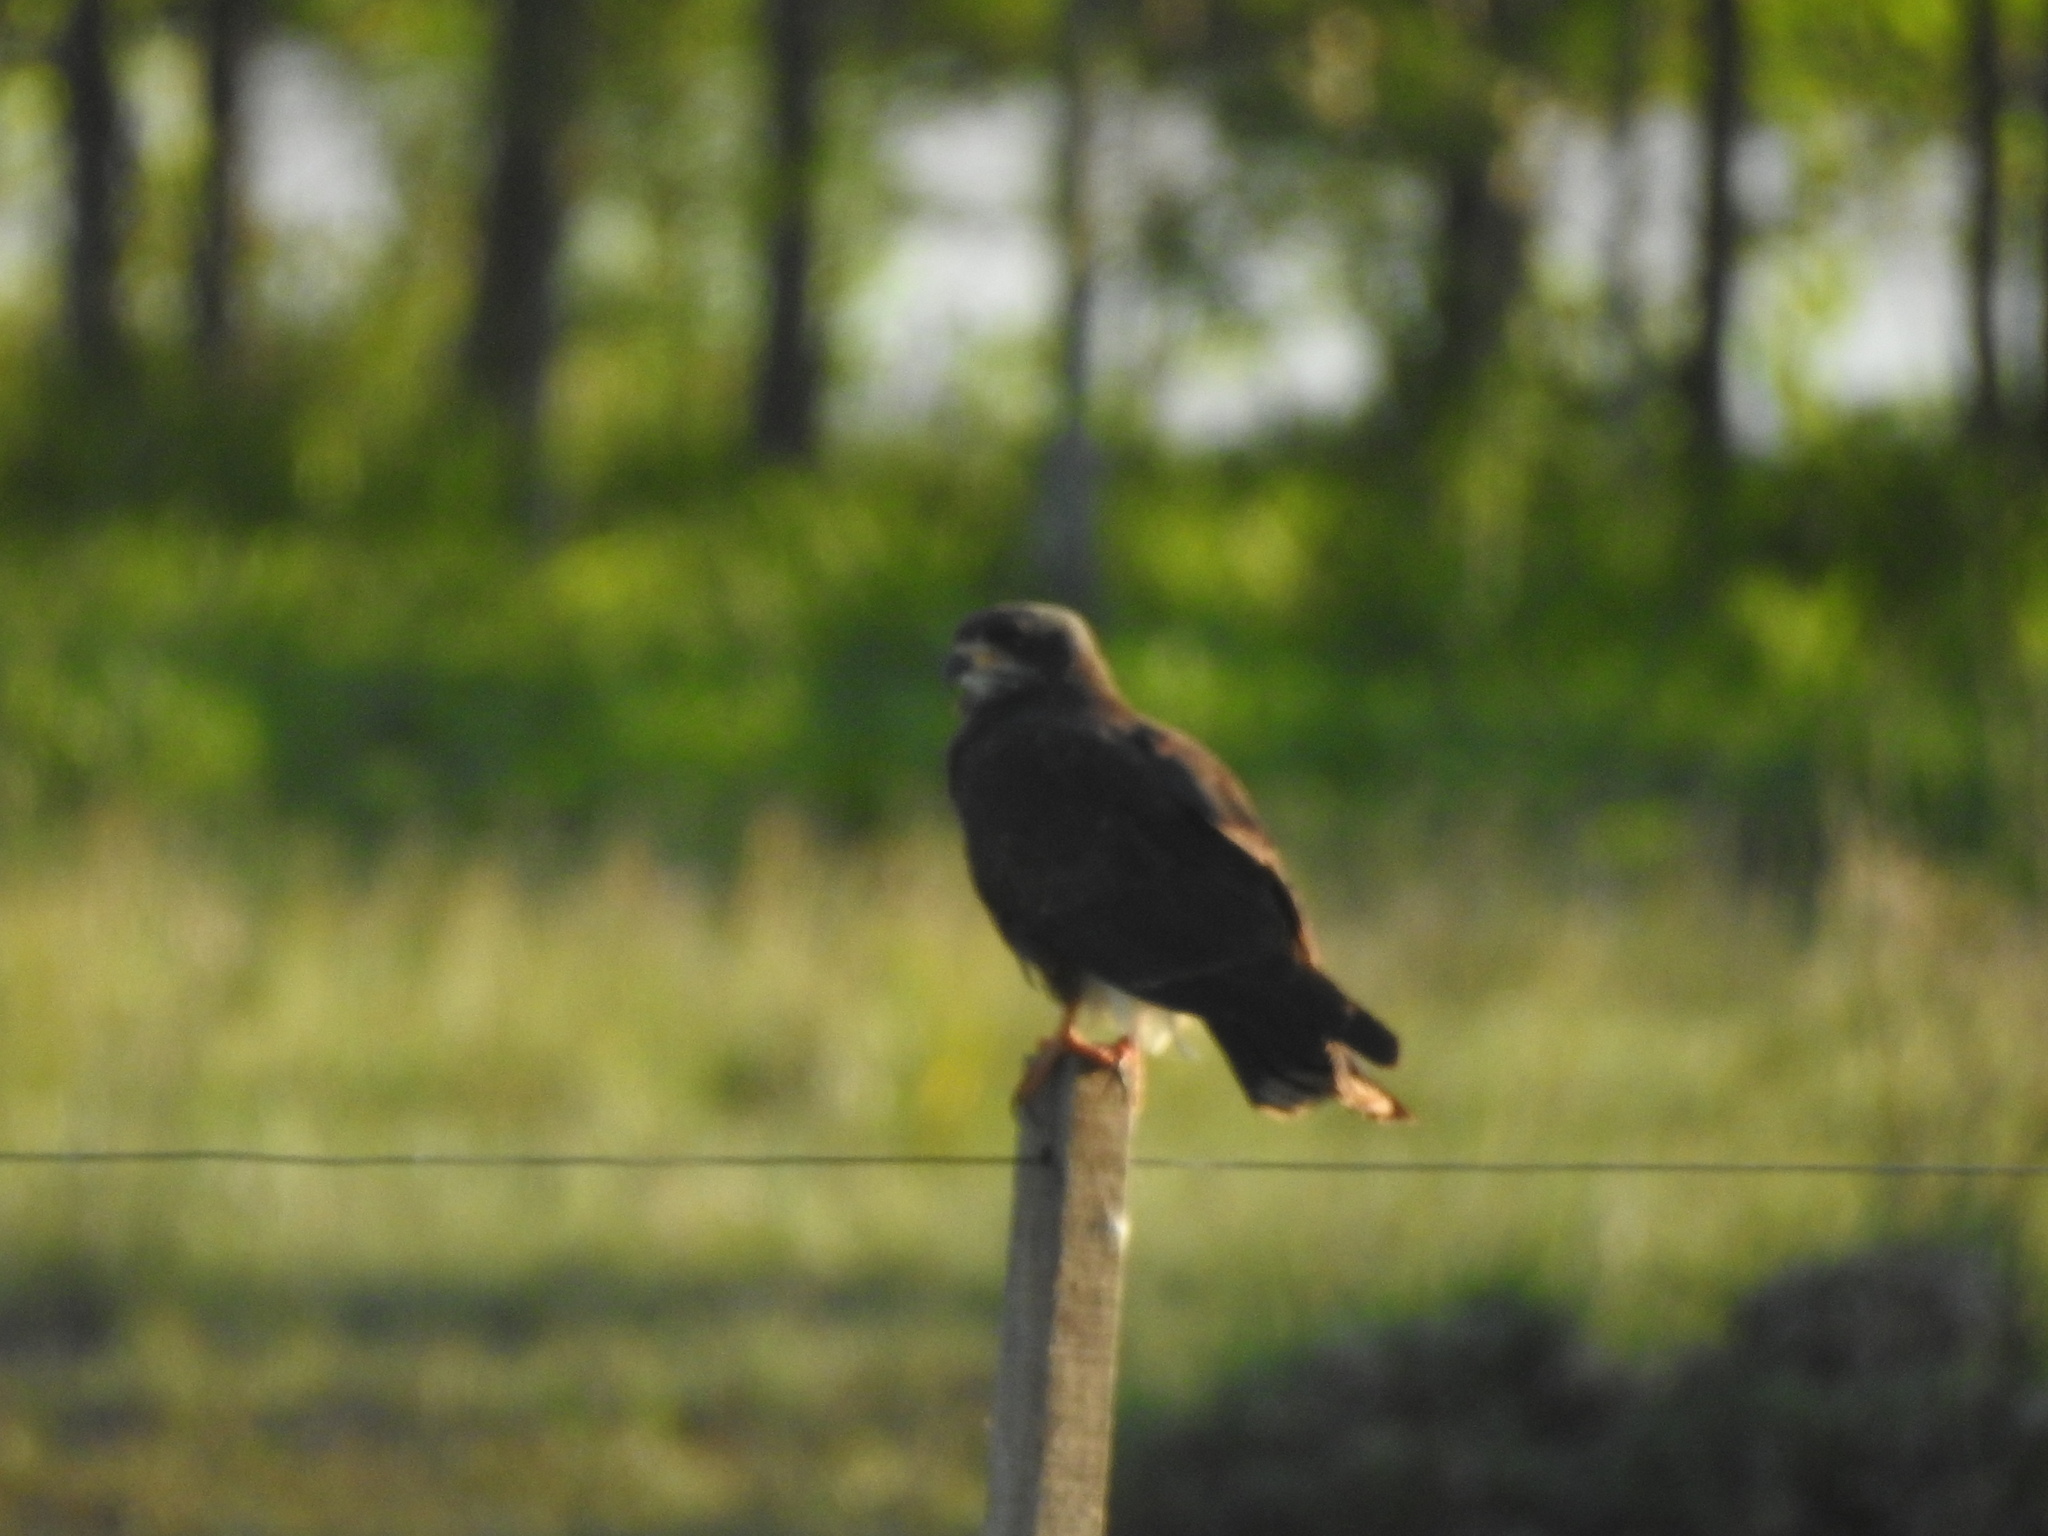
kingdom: Animalia
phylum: Chordata
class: Aves
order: Accipitriformes
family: Accipitridae
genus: Rostrhamus
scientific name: Rostrhamus sociabilis
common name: Snail kite
